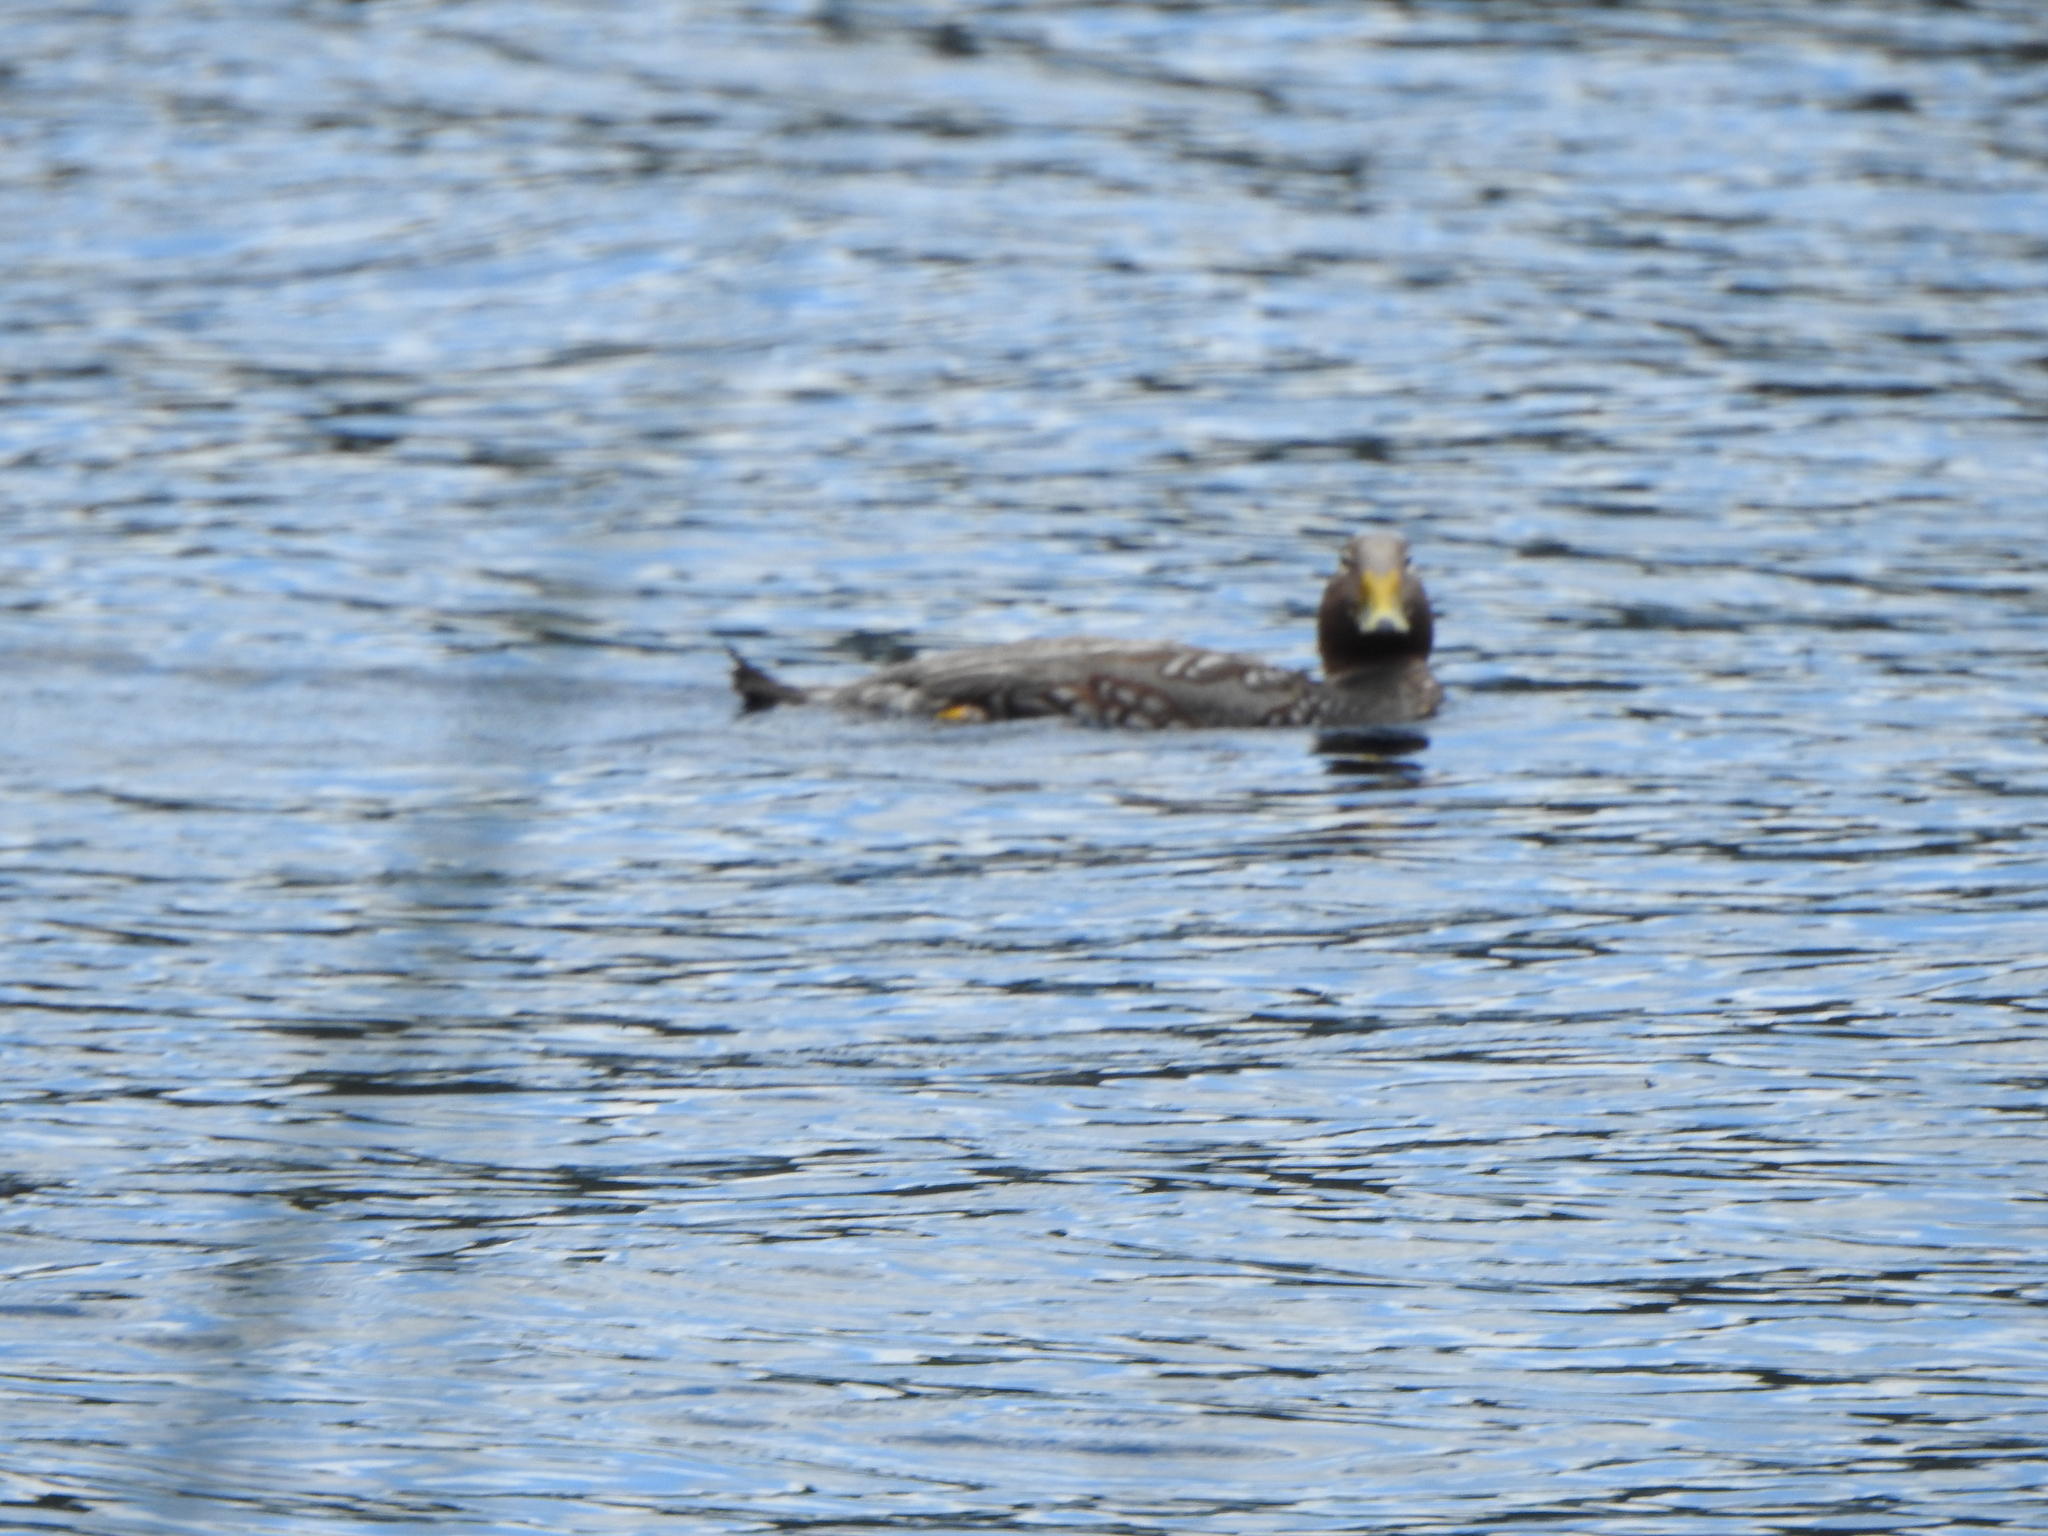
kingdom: Animalia
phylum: Chordata
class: Aves
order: Anseriformes
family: Anatidae
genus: Tachyeres
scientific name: Tachyeres patachonicus
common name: Flying steamer duck
